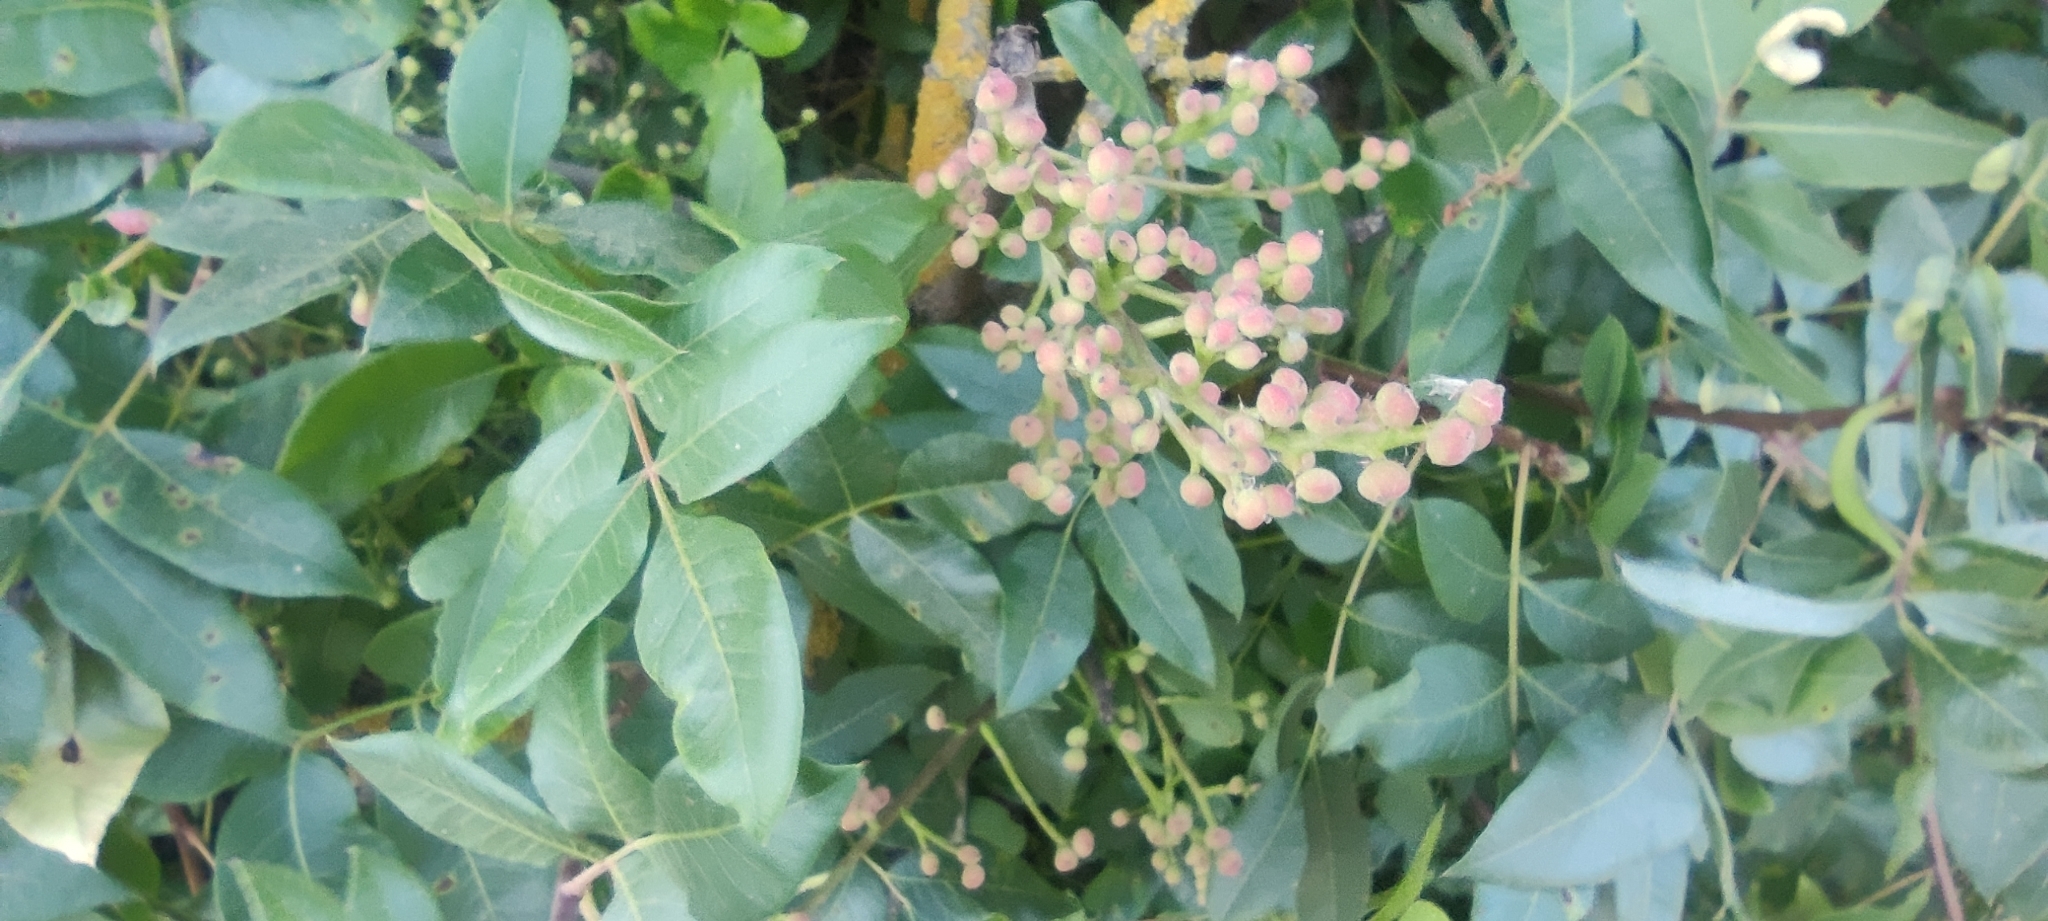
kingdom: Plantae
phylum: Tracheophyta
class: Magnoliopsida
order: Sapindales
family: Anacardiaceae
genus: Pistacia
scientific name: Pistacia terebinthus
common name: Terebinth
